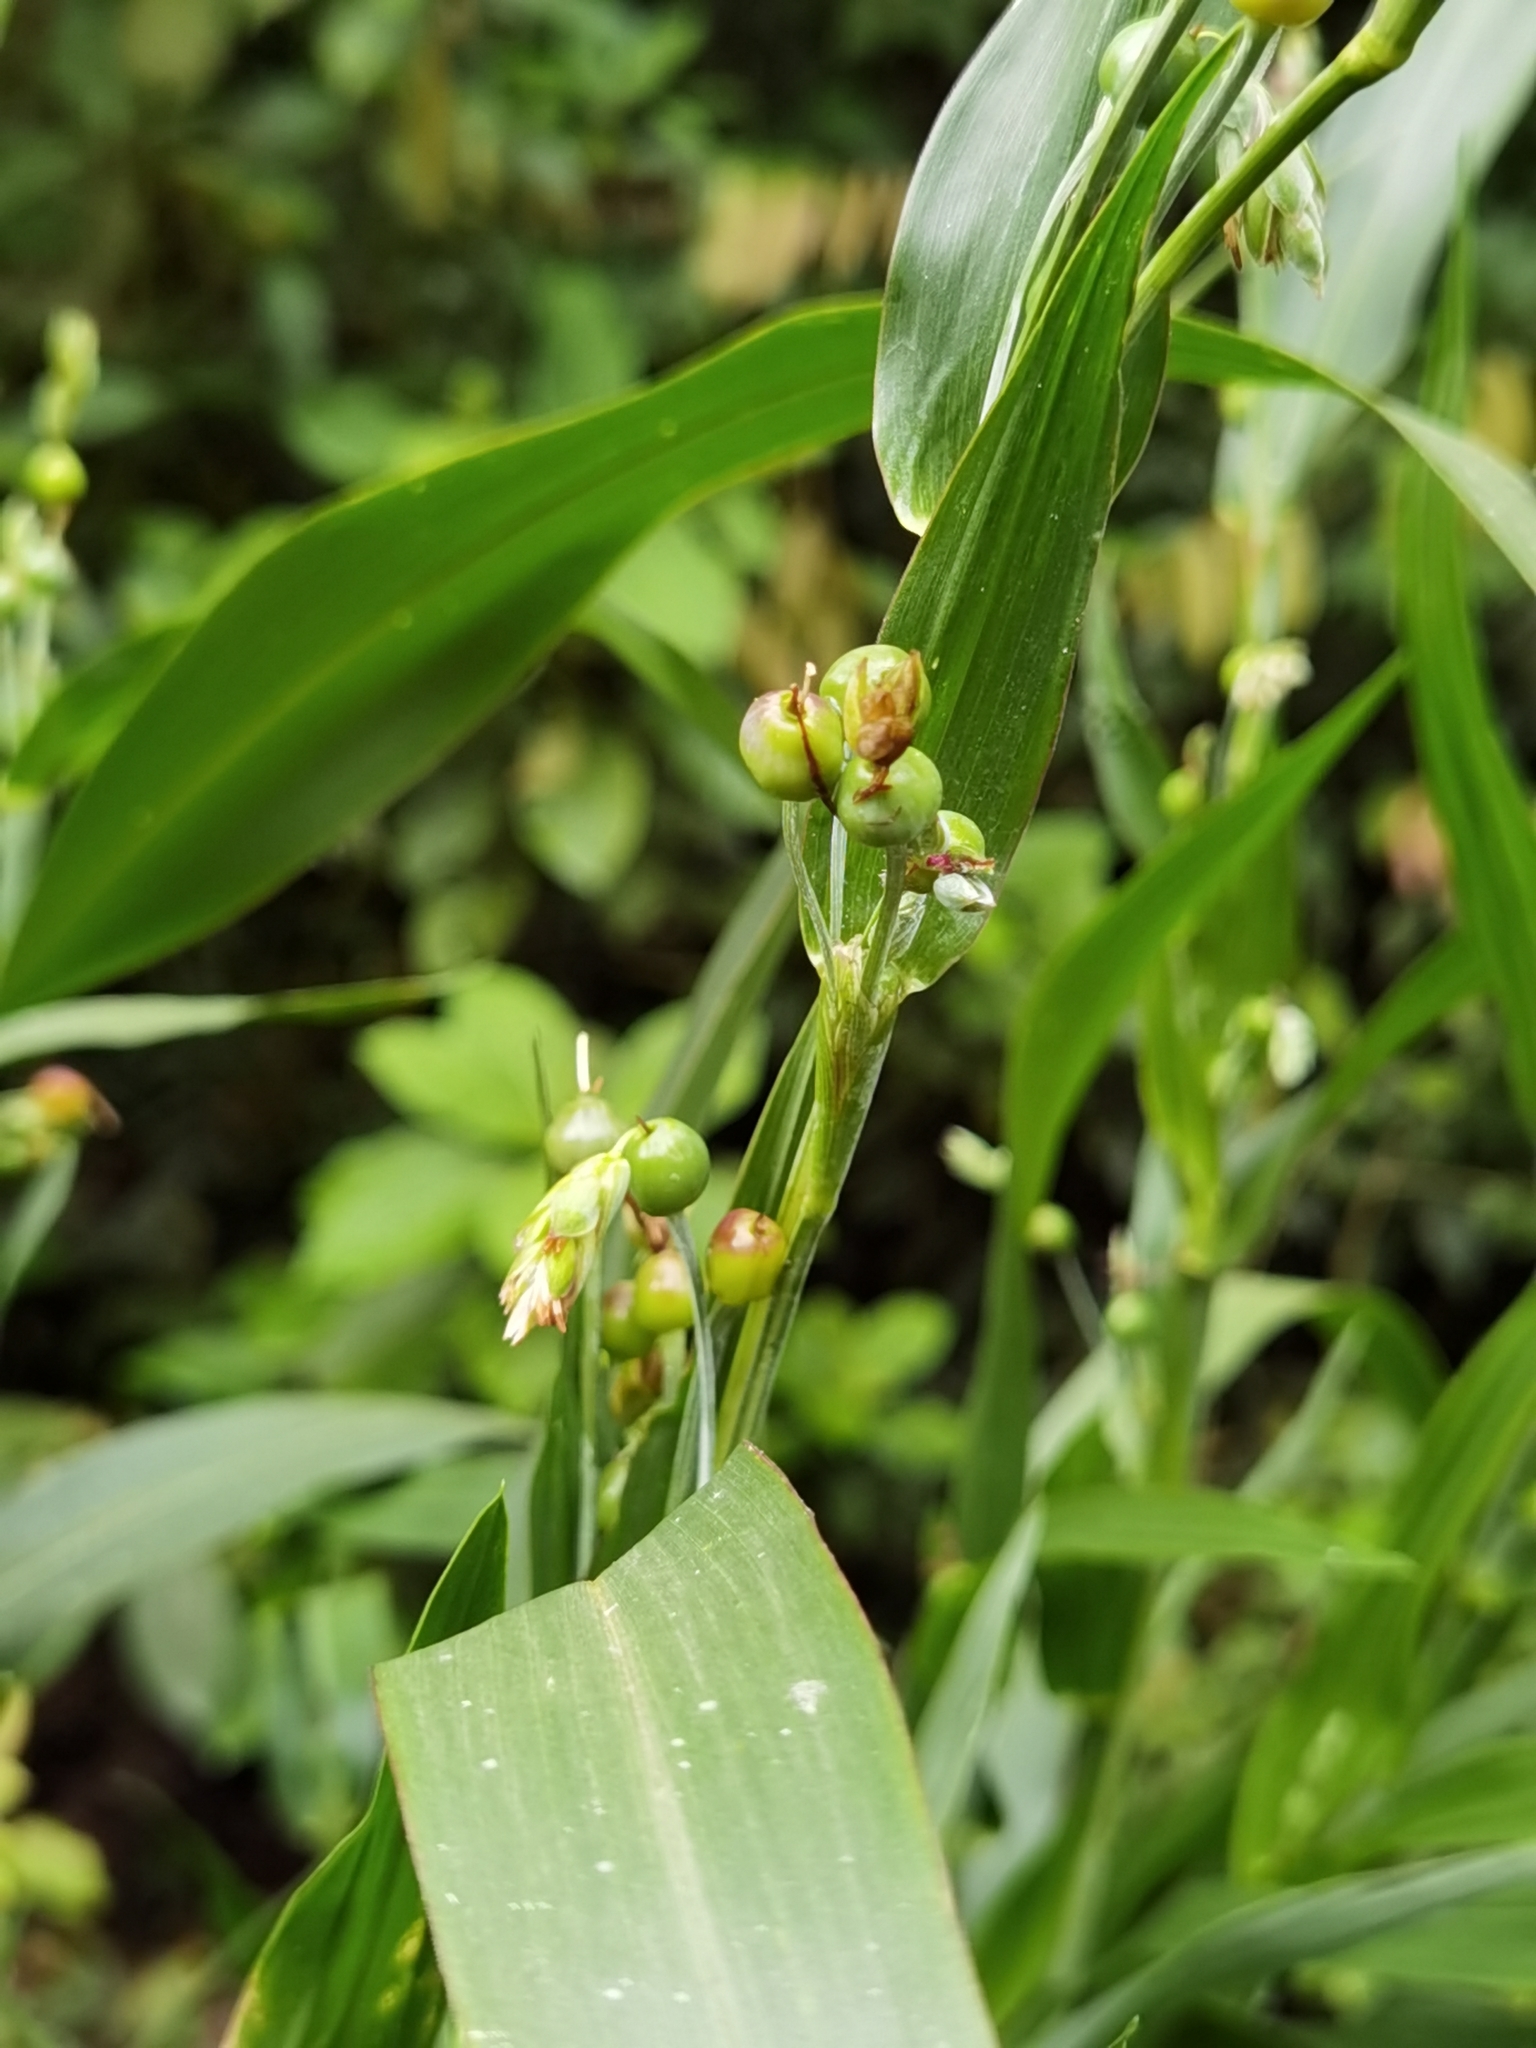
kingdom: Plantae
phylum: Tracheophyta
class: Liliopsida
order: Poales
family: Poaceae
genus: Coix
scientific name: Coix lacryma-jobi
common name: Job's tears
